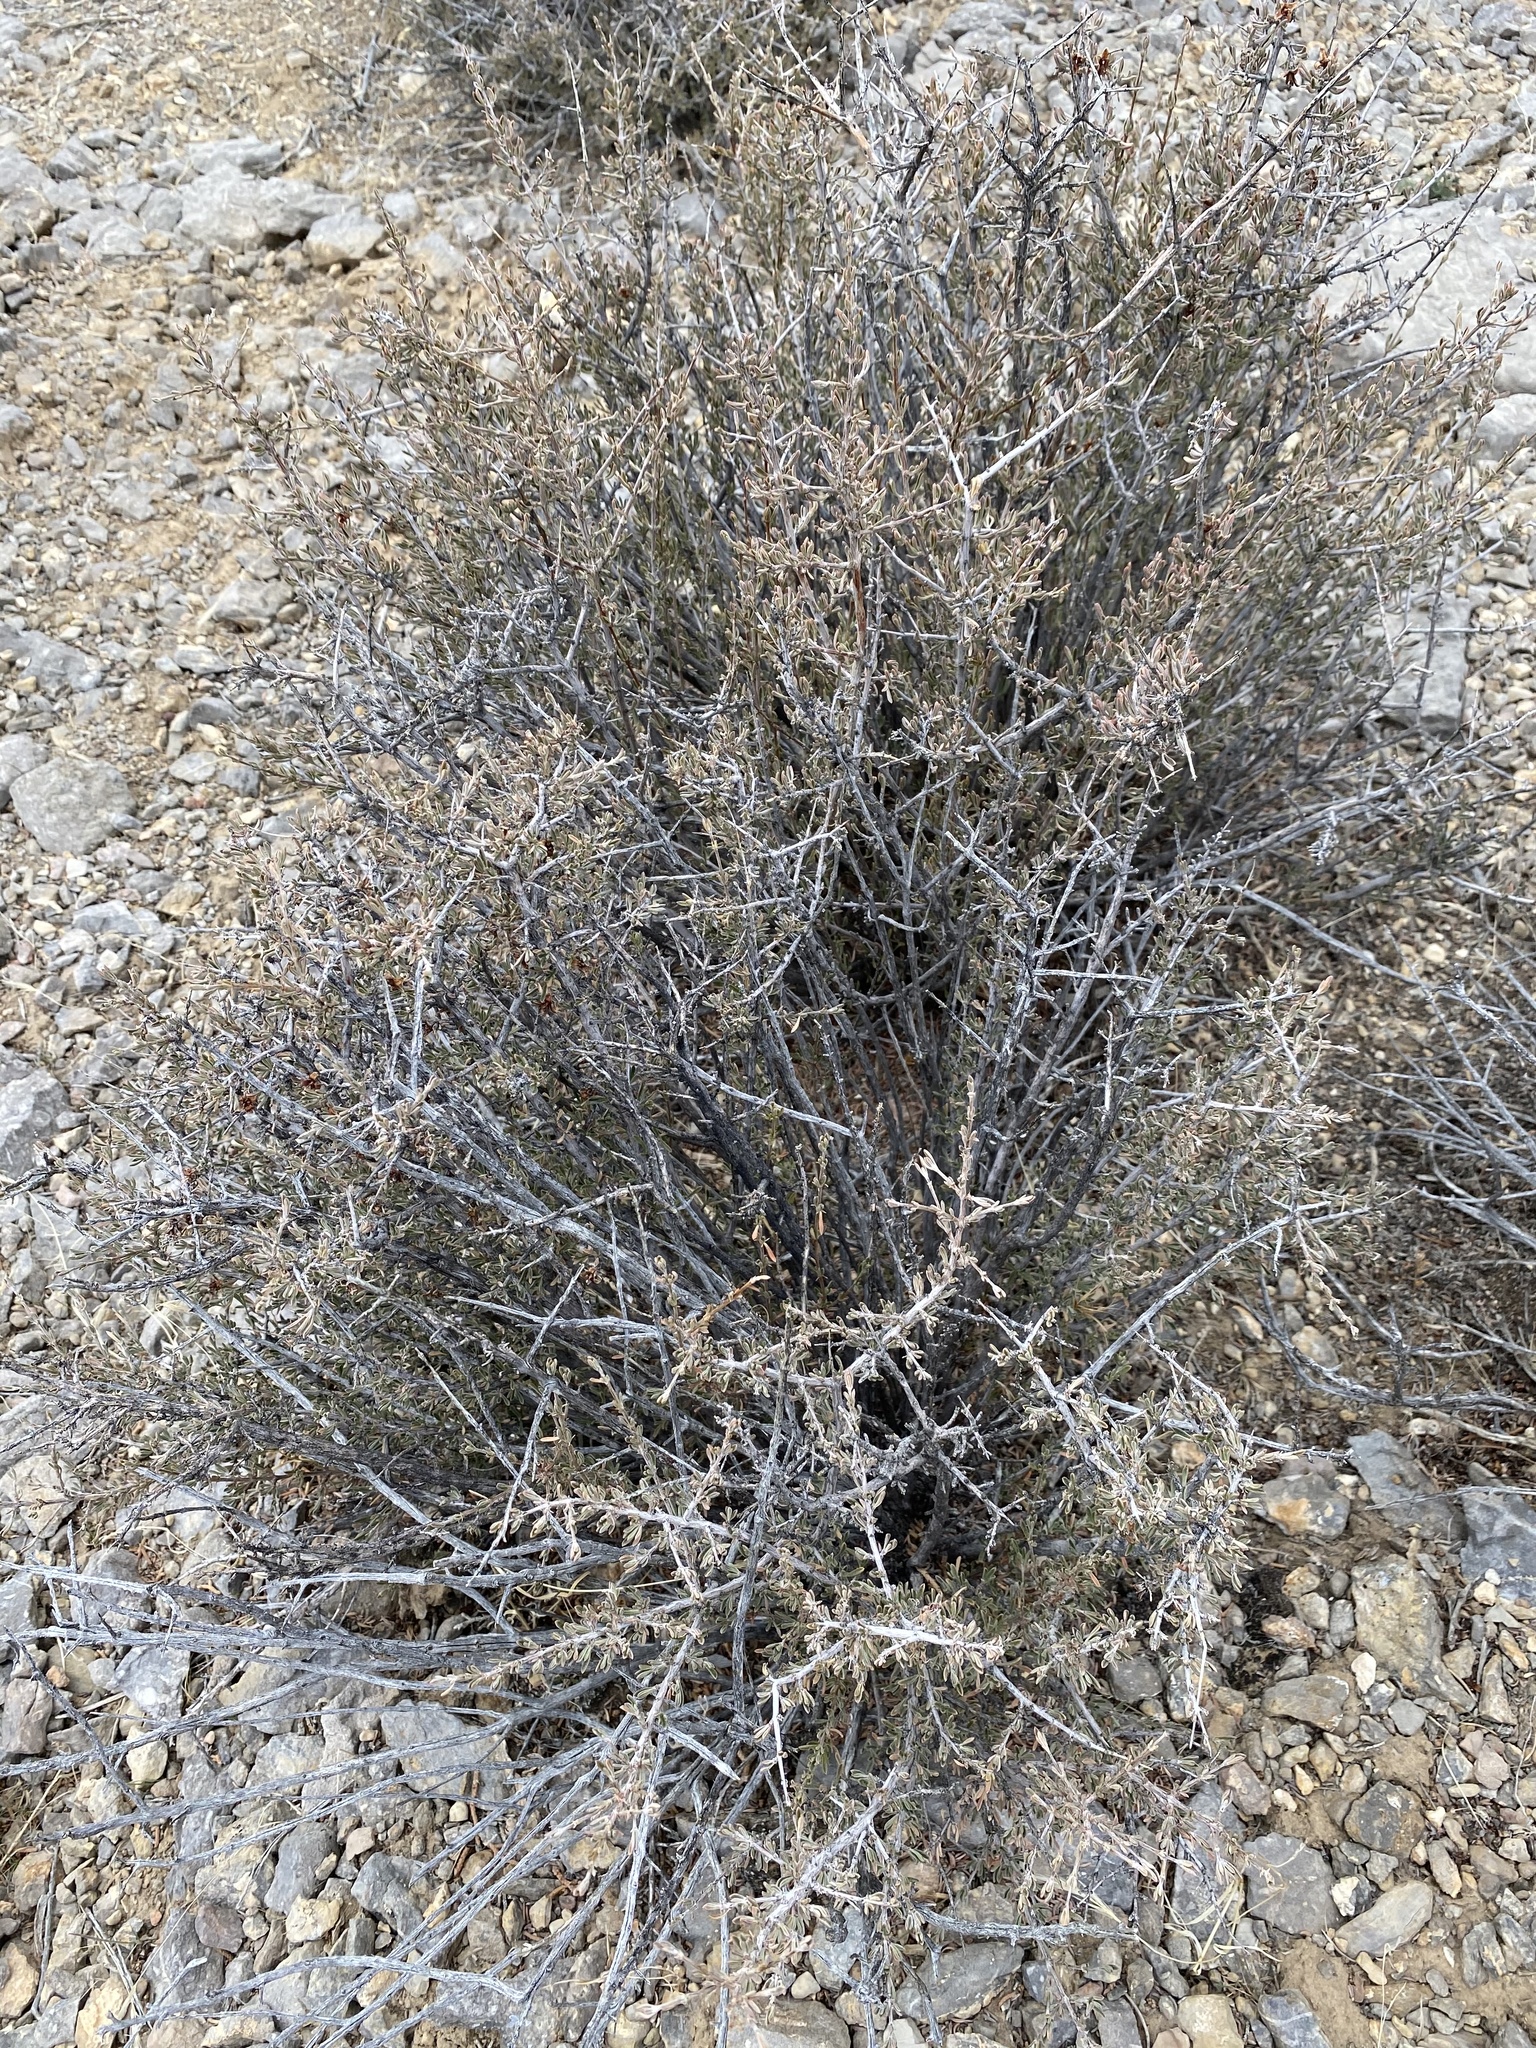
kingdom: Plantae
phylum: Tracheophyta
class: Magnoliopsida
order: Rosales
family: Rosaceae
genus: Coleogyne
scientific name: Coleogyne ramosissima
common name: Blackbrush
